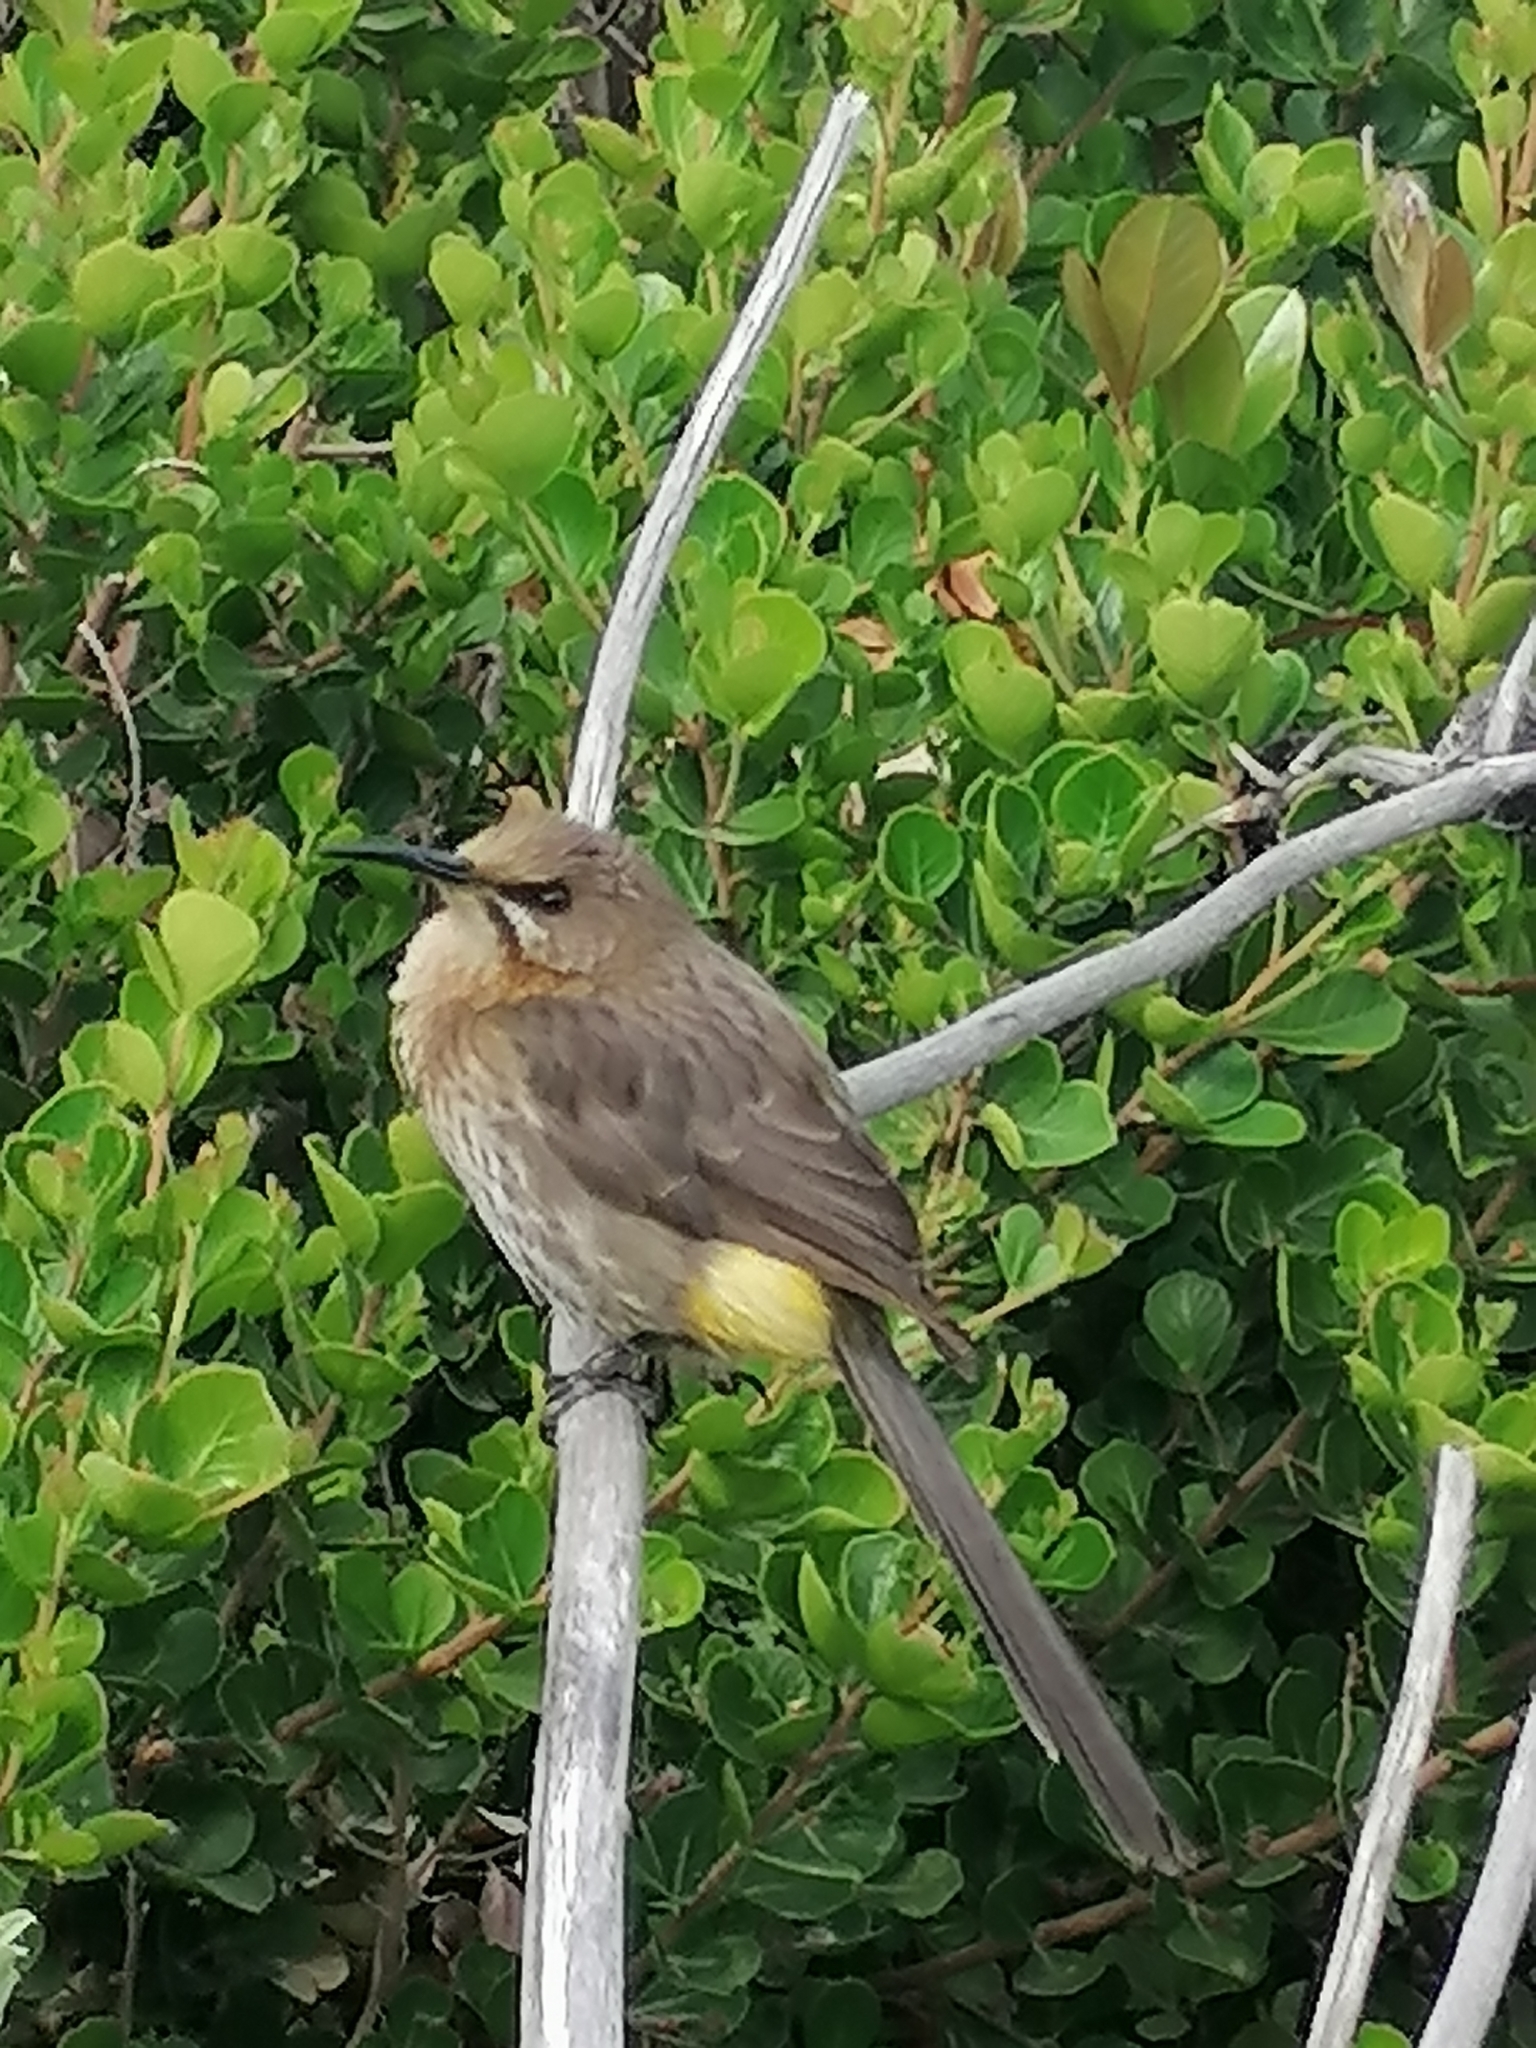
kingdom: Animalia
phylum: Chordata
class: Aves
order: Passeriformes
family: Promeropidae
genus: Promerops
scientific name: Promerops cafer
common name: Cape sugarbird
